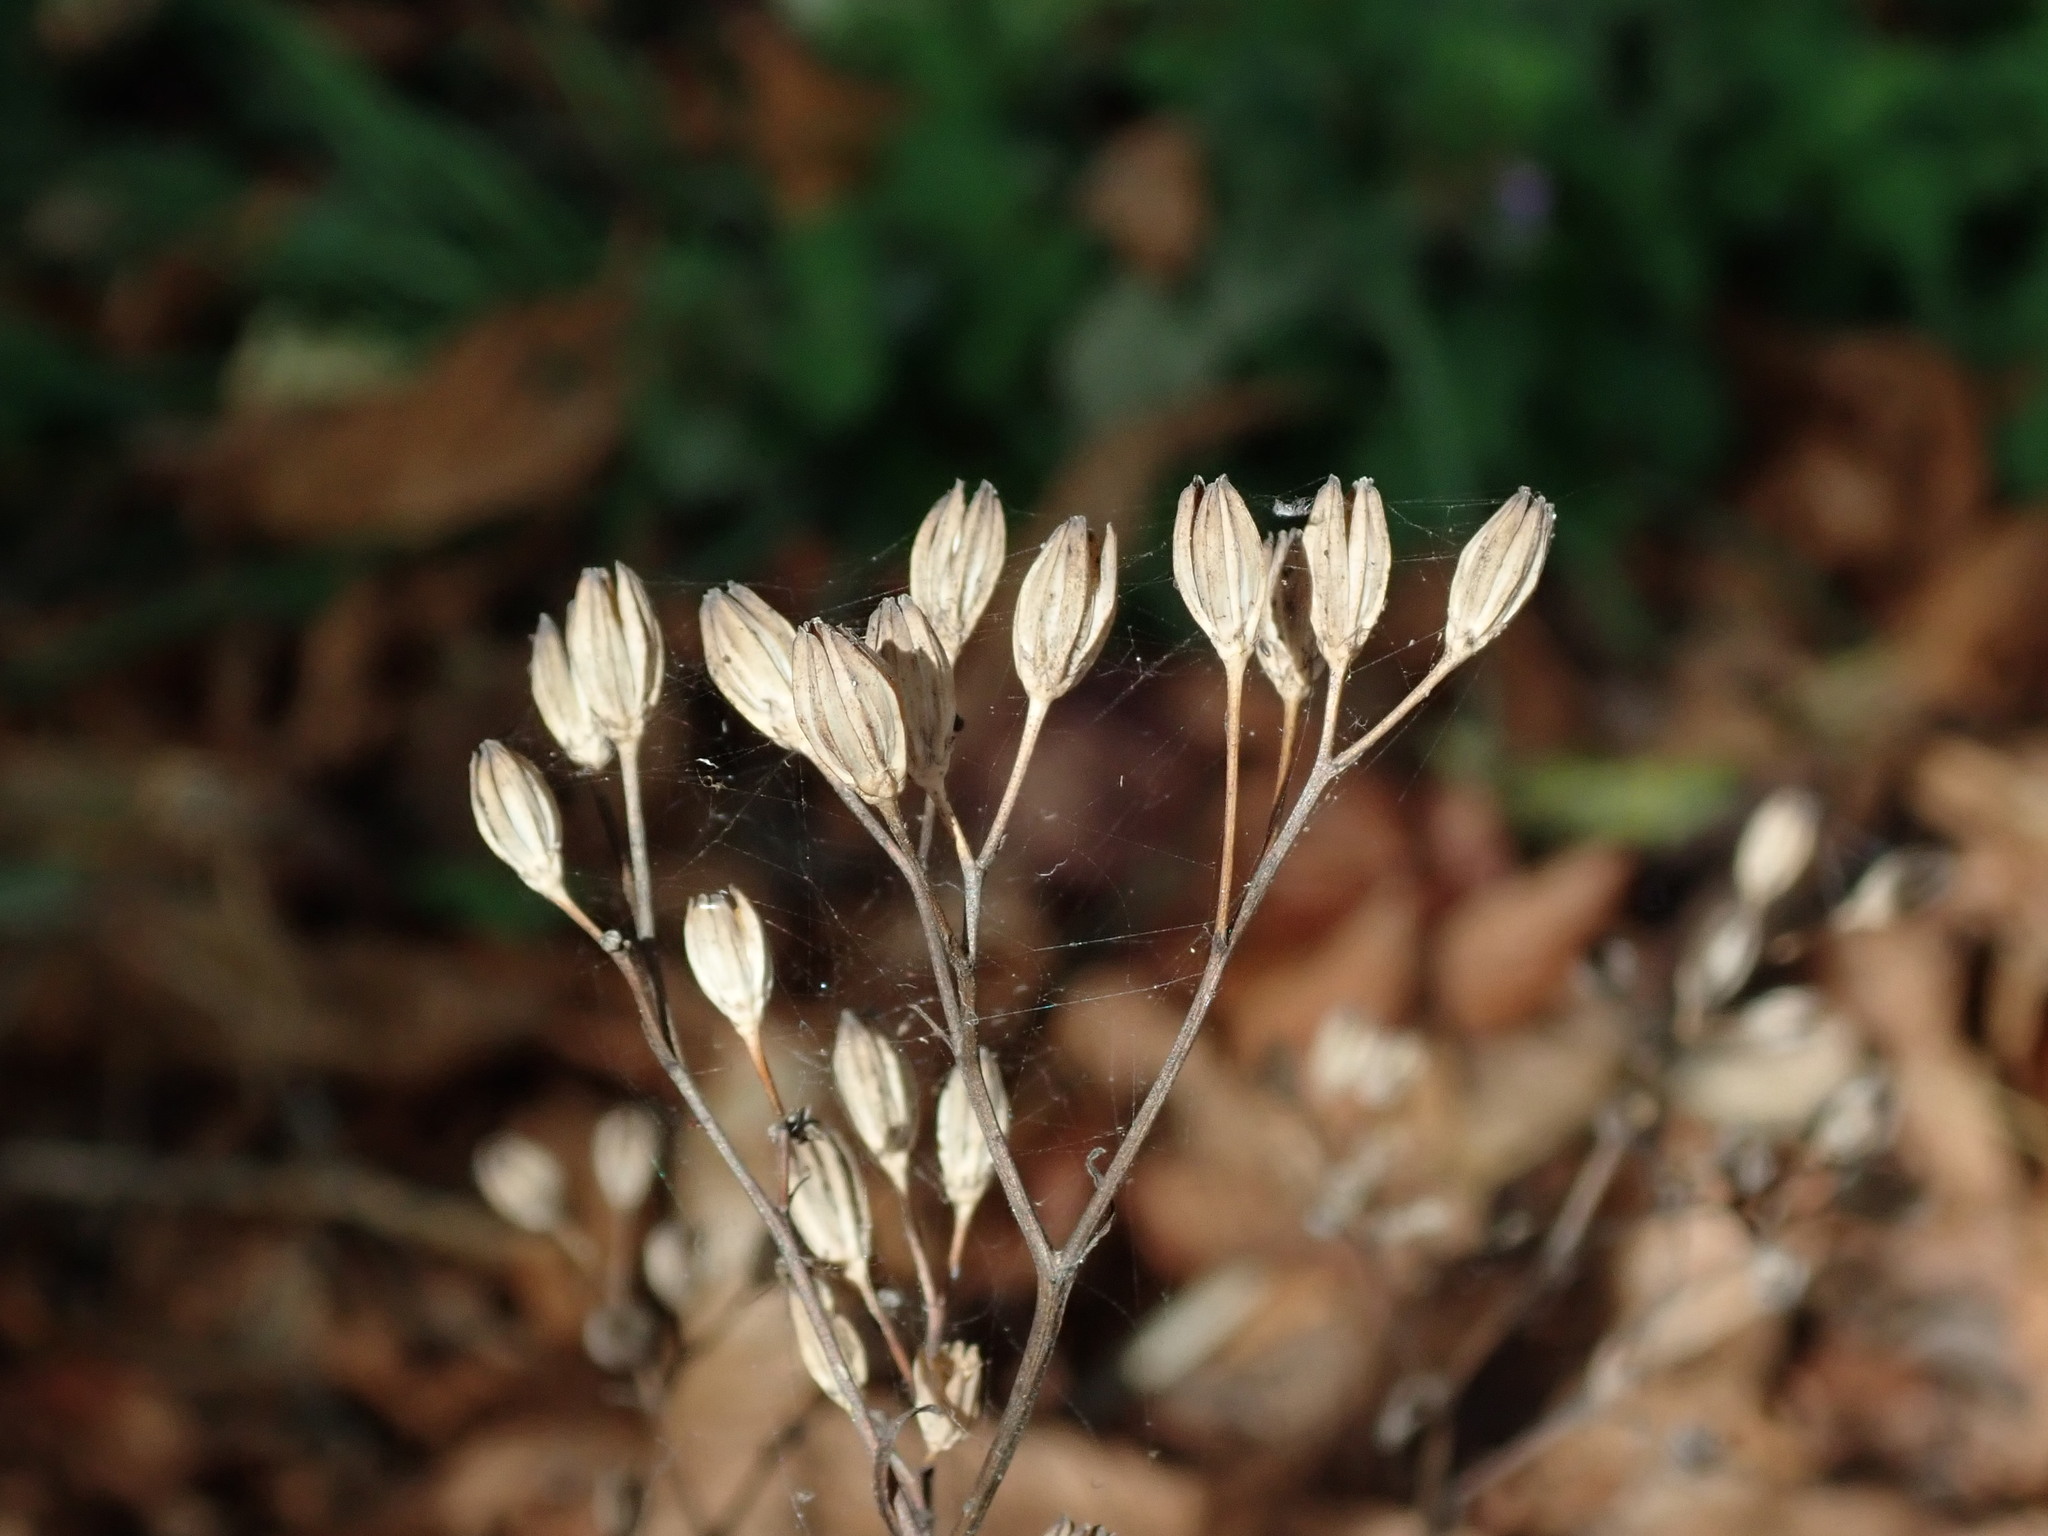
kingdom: Plantae
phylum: Tracheophyta
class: Magnoliopsida
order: Asterales
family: Asteraceae
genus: Lapsana
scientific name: Lapsana communis
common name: Nipplewort
